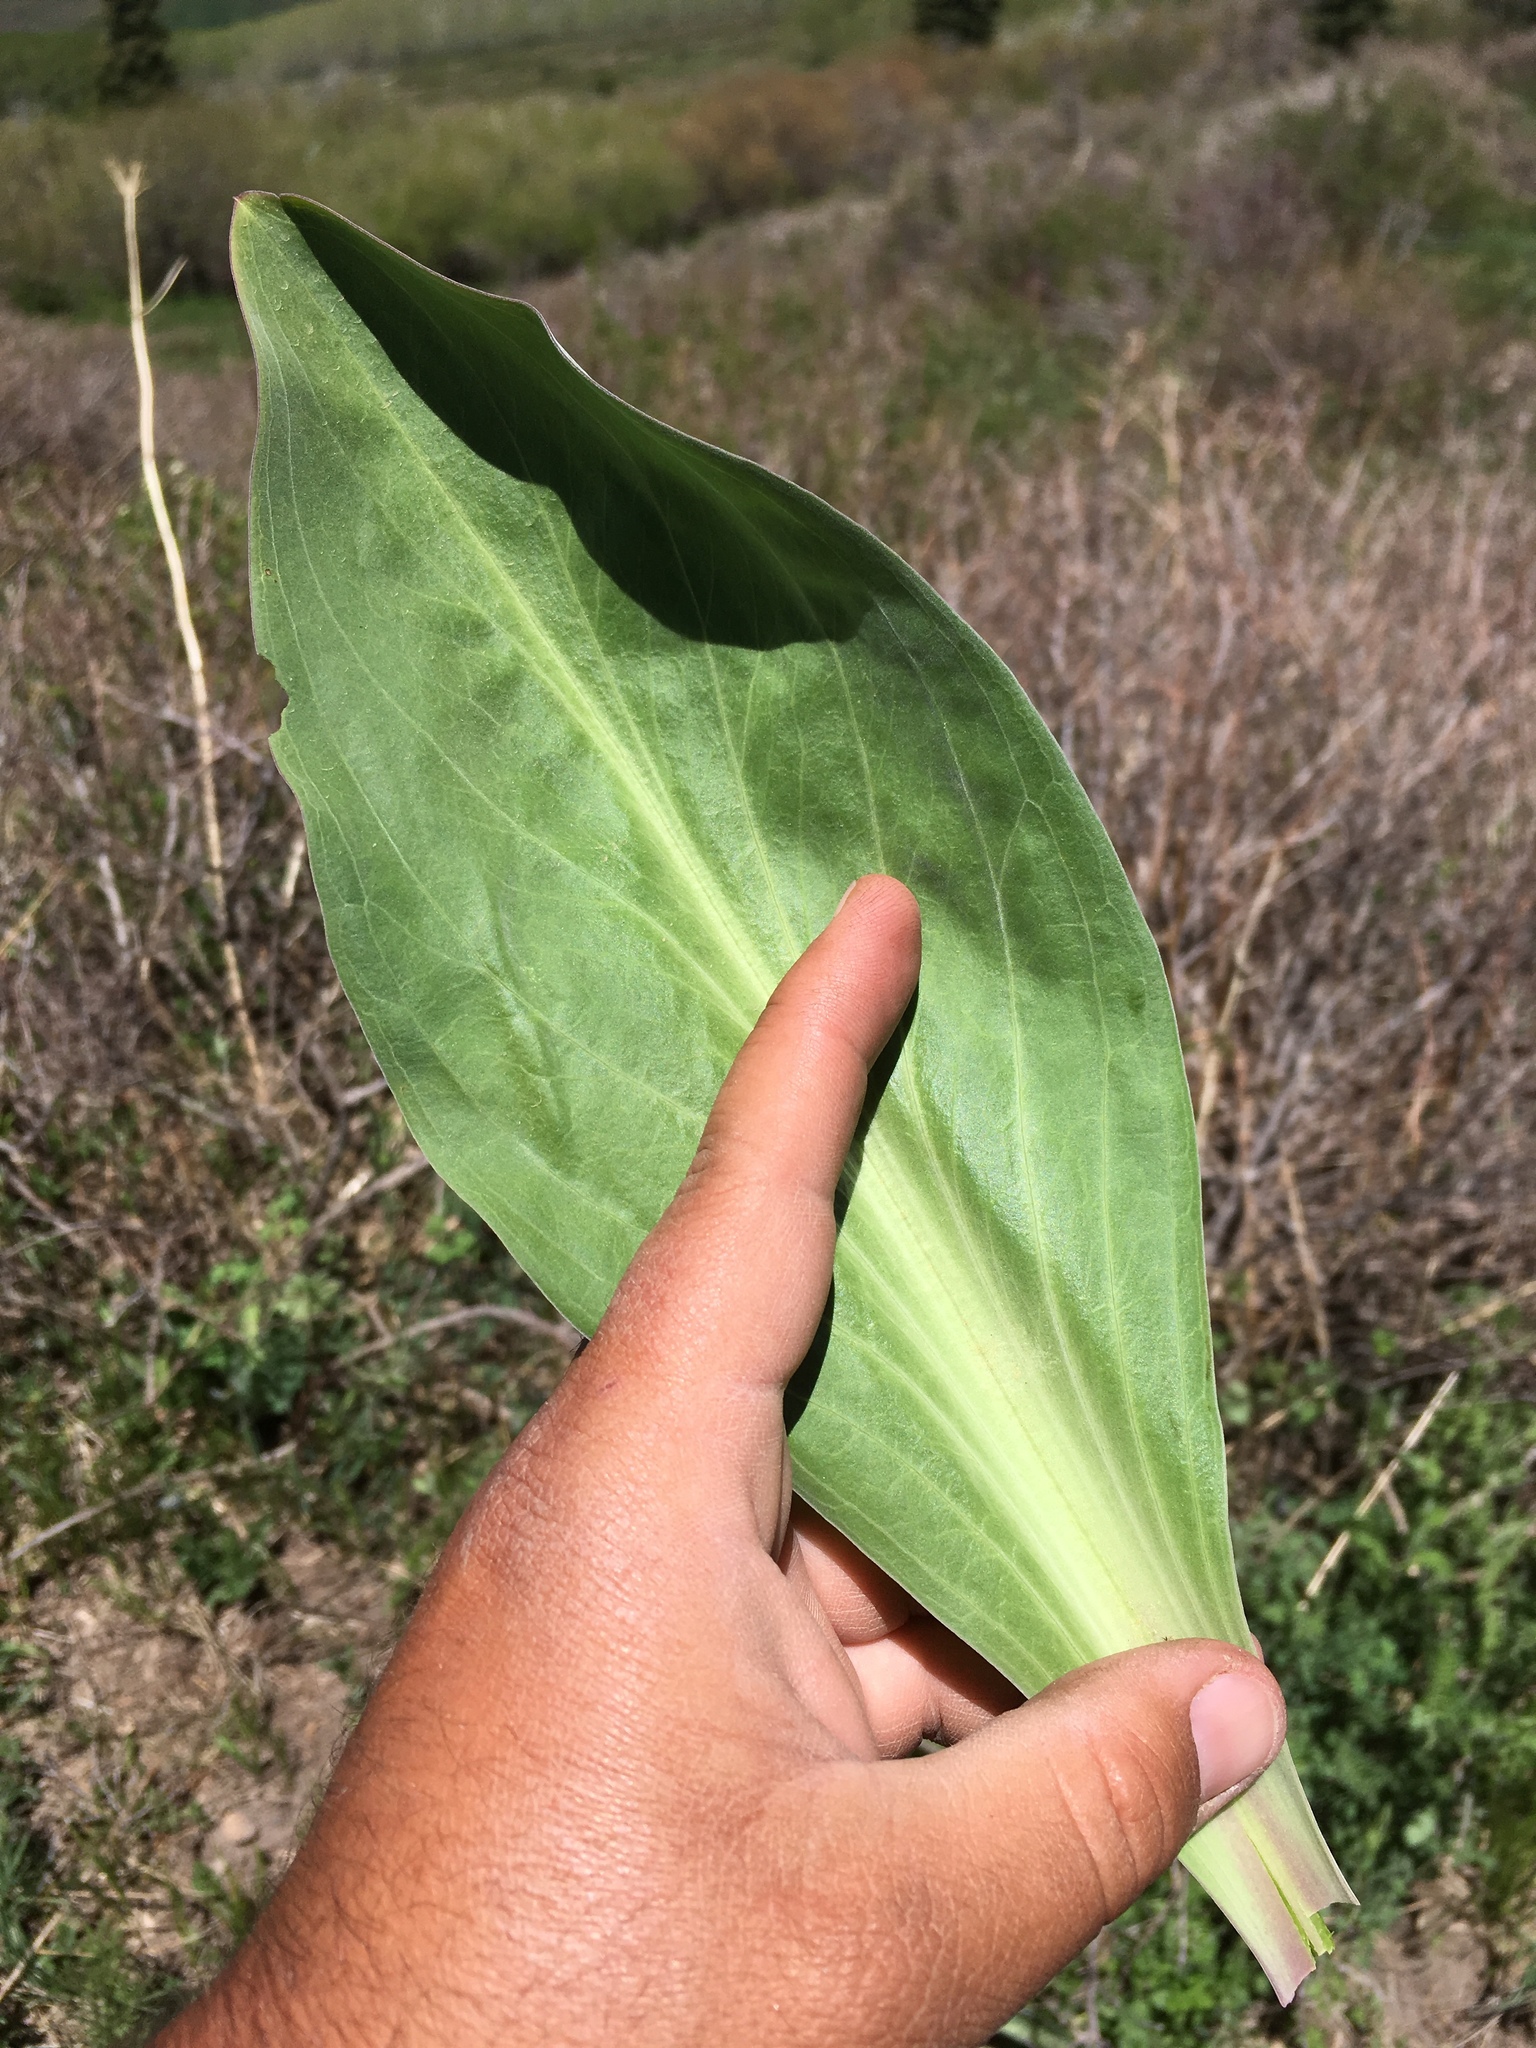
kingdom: Plantae
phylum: Tracheophyta
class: Magnoliopsida
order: Gentianales
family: Gentianaceae
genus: Frasera
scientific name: Frasera speciosa
